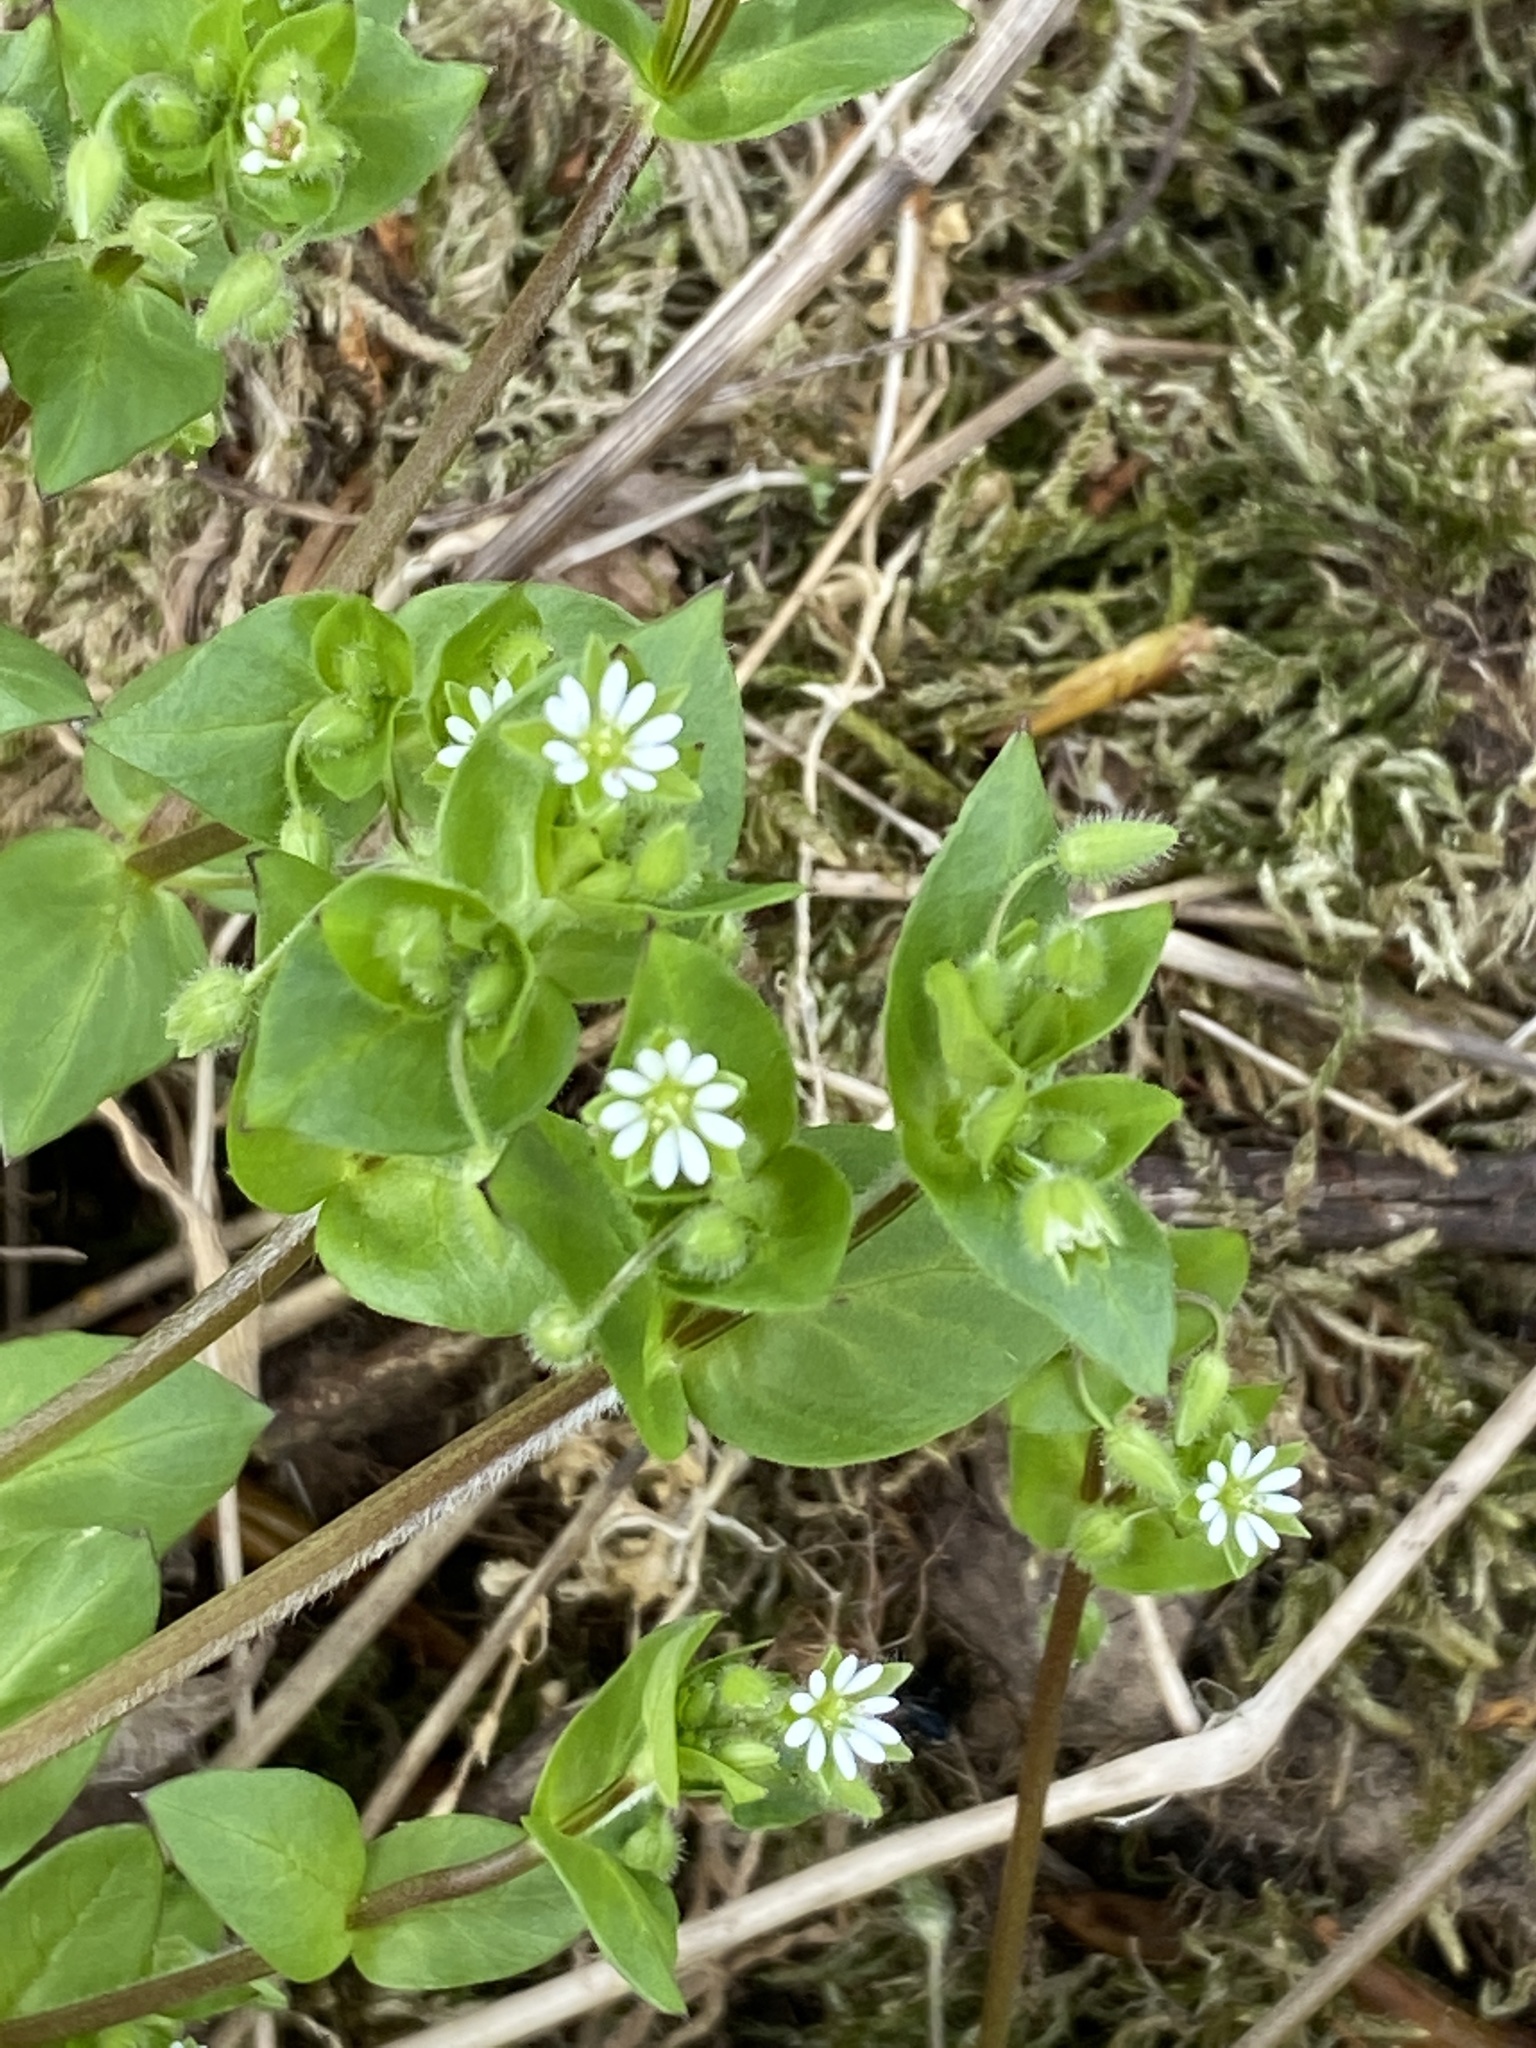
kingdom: Plantae
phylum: Tracheophyta
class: Magnoliopsida
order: Caryophyllales
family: Caryophyllaceae
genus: Stellaria
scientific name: Stellaria media
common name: Common chickweed
